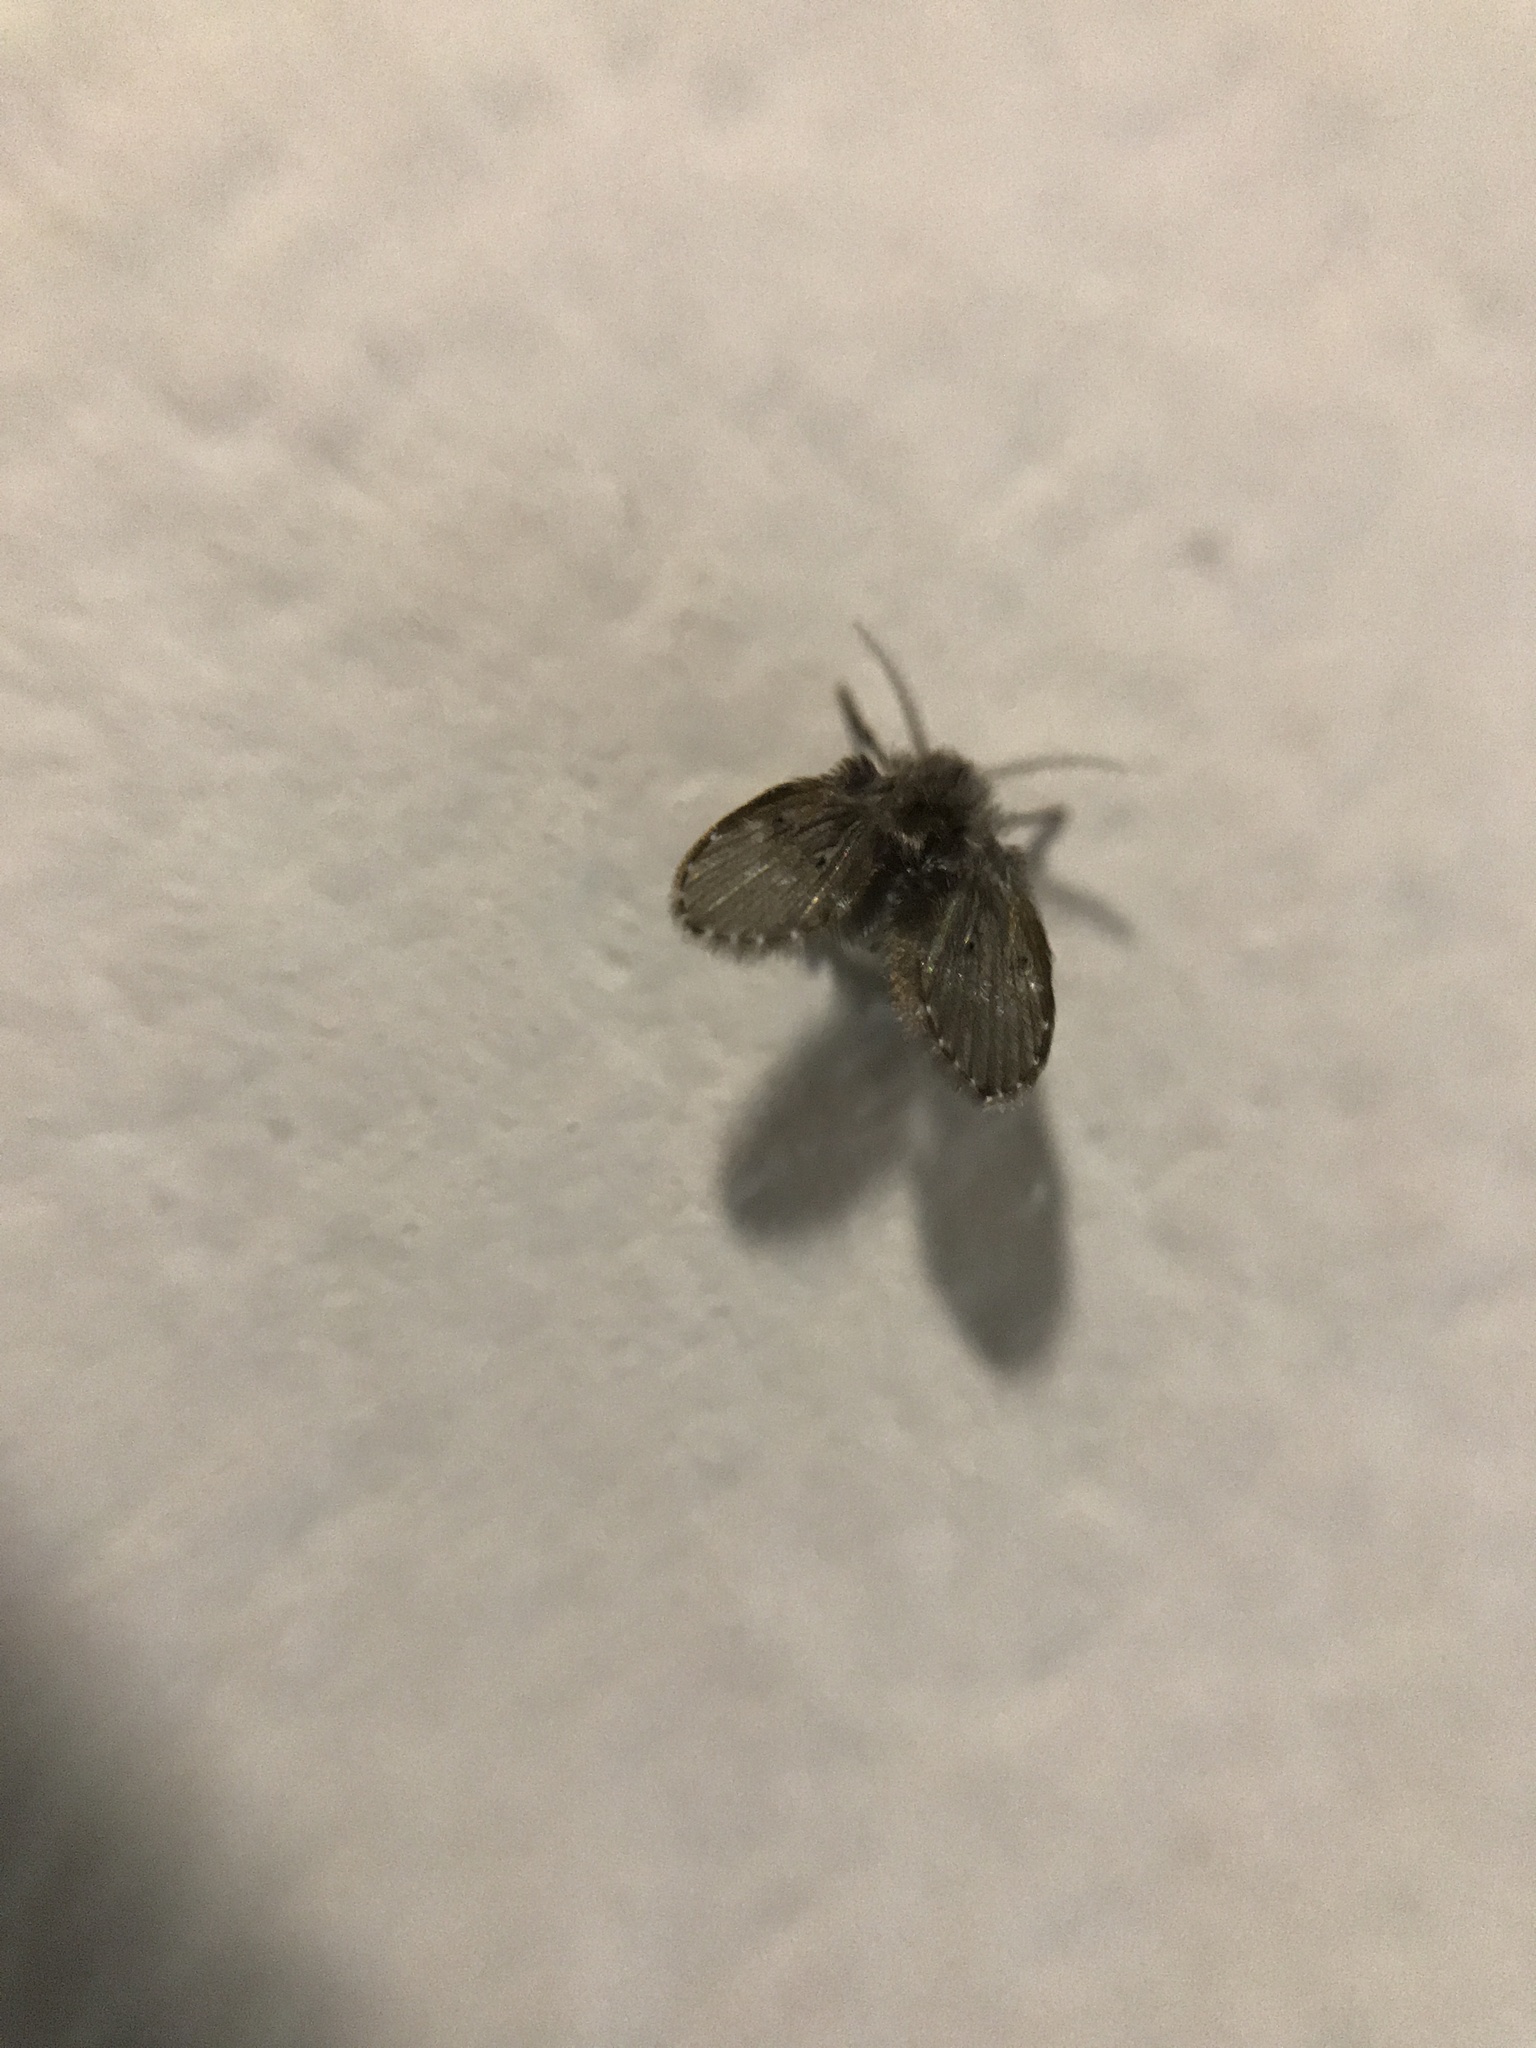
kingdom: Animalia
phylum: Arthropoda
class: Insecta
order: Diptera
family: Psychodidae
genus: Clogmia
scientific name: Clogmia albipunctatus
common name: White-spotted moth fly
